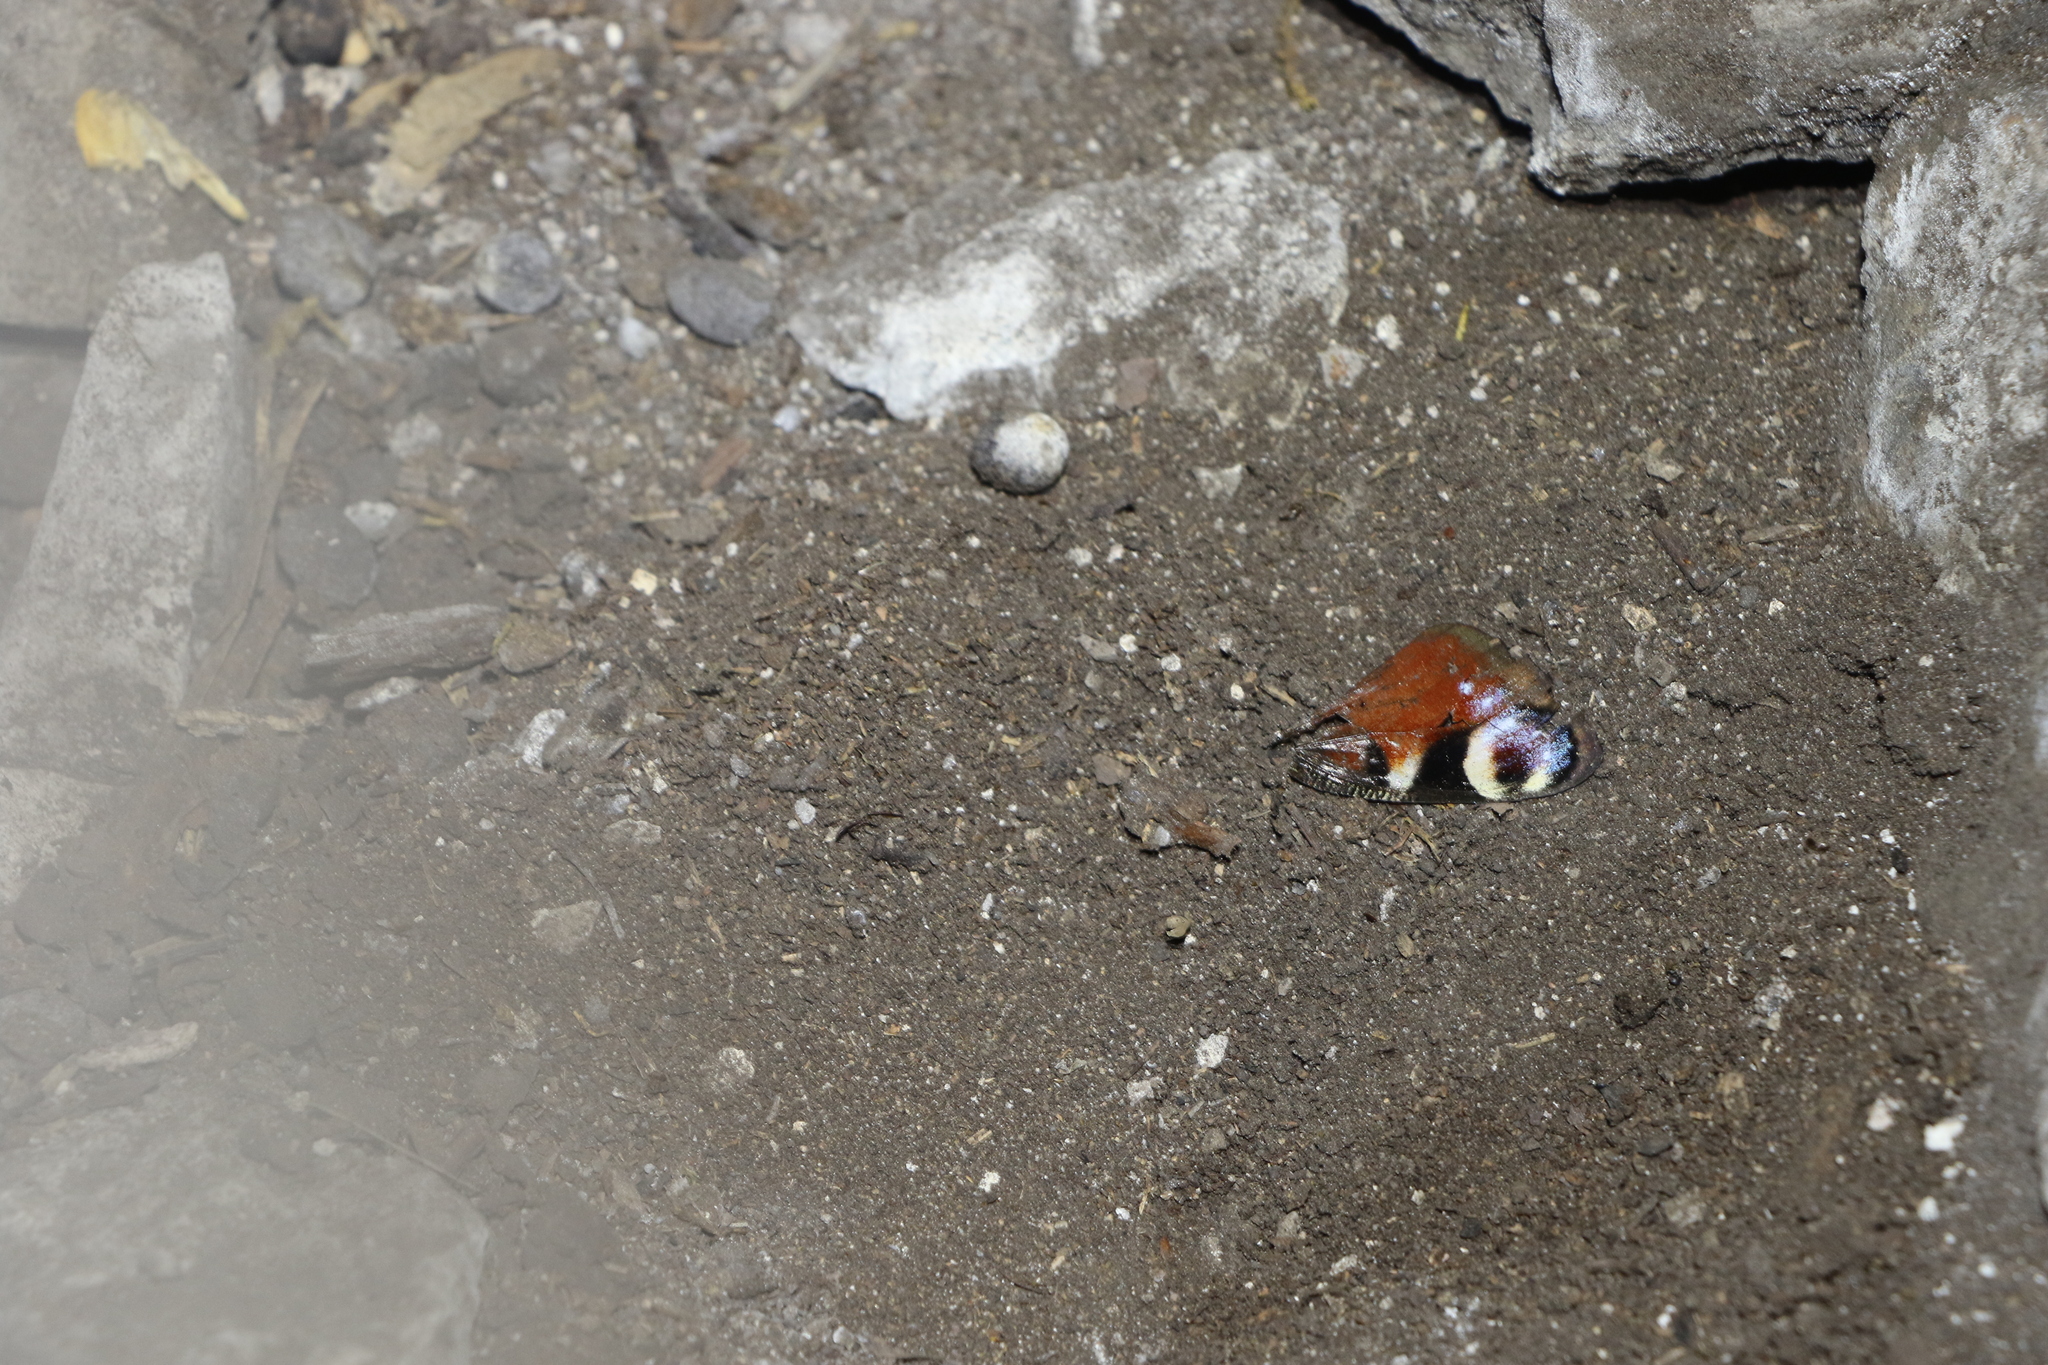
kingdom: Animalia
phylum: Arthropoda
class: Insecta
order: Lepidoptera
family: Nymphalidae
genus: Aglais
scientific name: Aglais io
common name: Peacock
